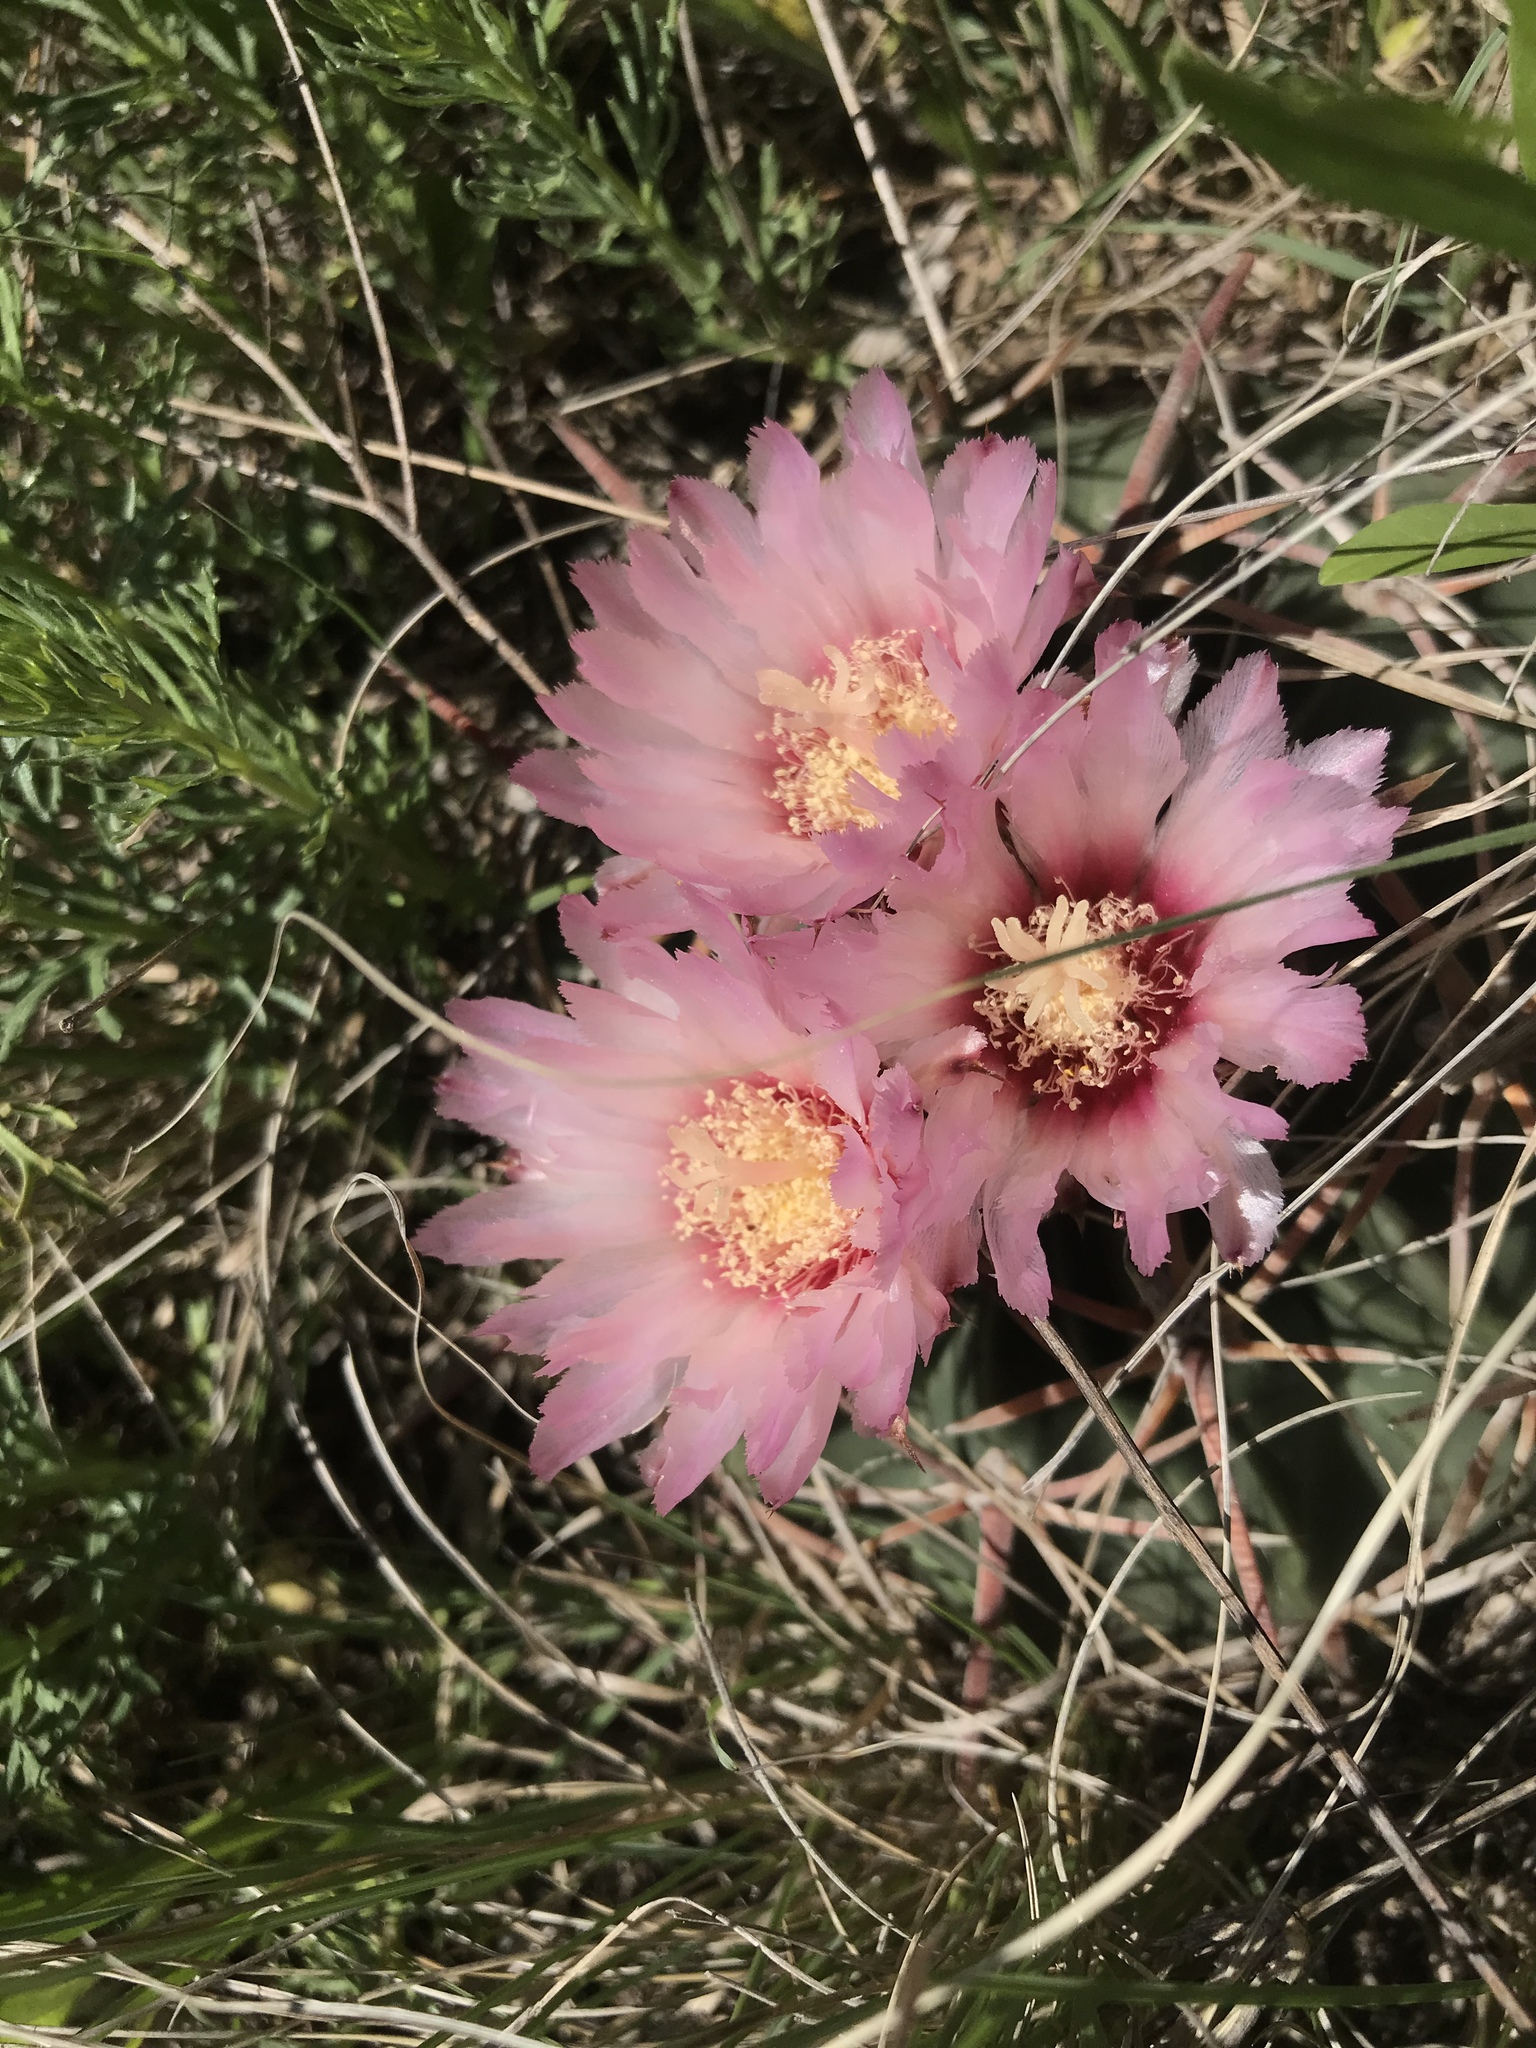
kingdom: Plantae
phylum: Tracheophyta
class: Magnoliopsida
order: Caryophyllales
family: Cactaceae
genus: Echinocactus
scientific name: Echinocactus texensis
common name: Devil's pincushion
